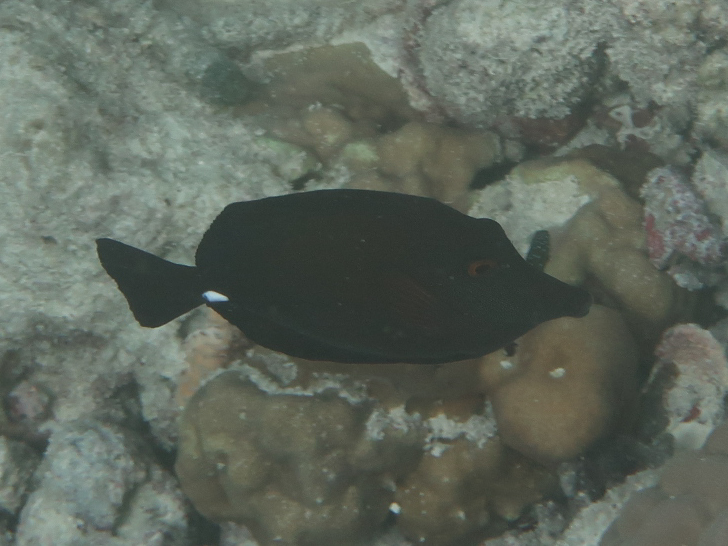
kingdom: Animalia
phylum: Chordata
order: Perciformes
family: Acanthuridae
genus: Zebrasoma
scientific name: Zebrasoma scopas
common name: Twotone tang
